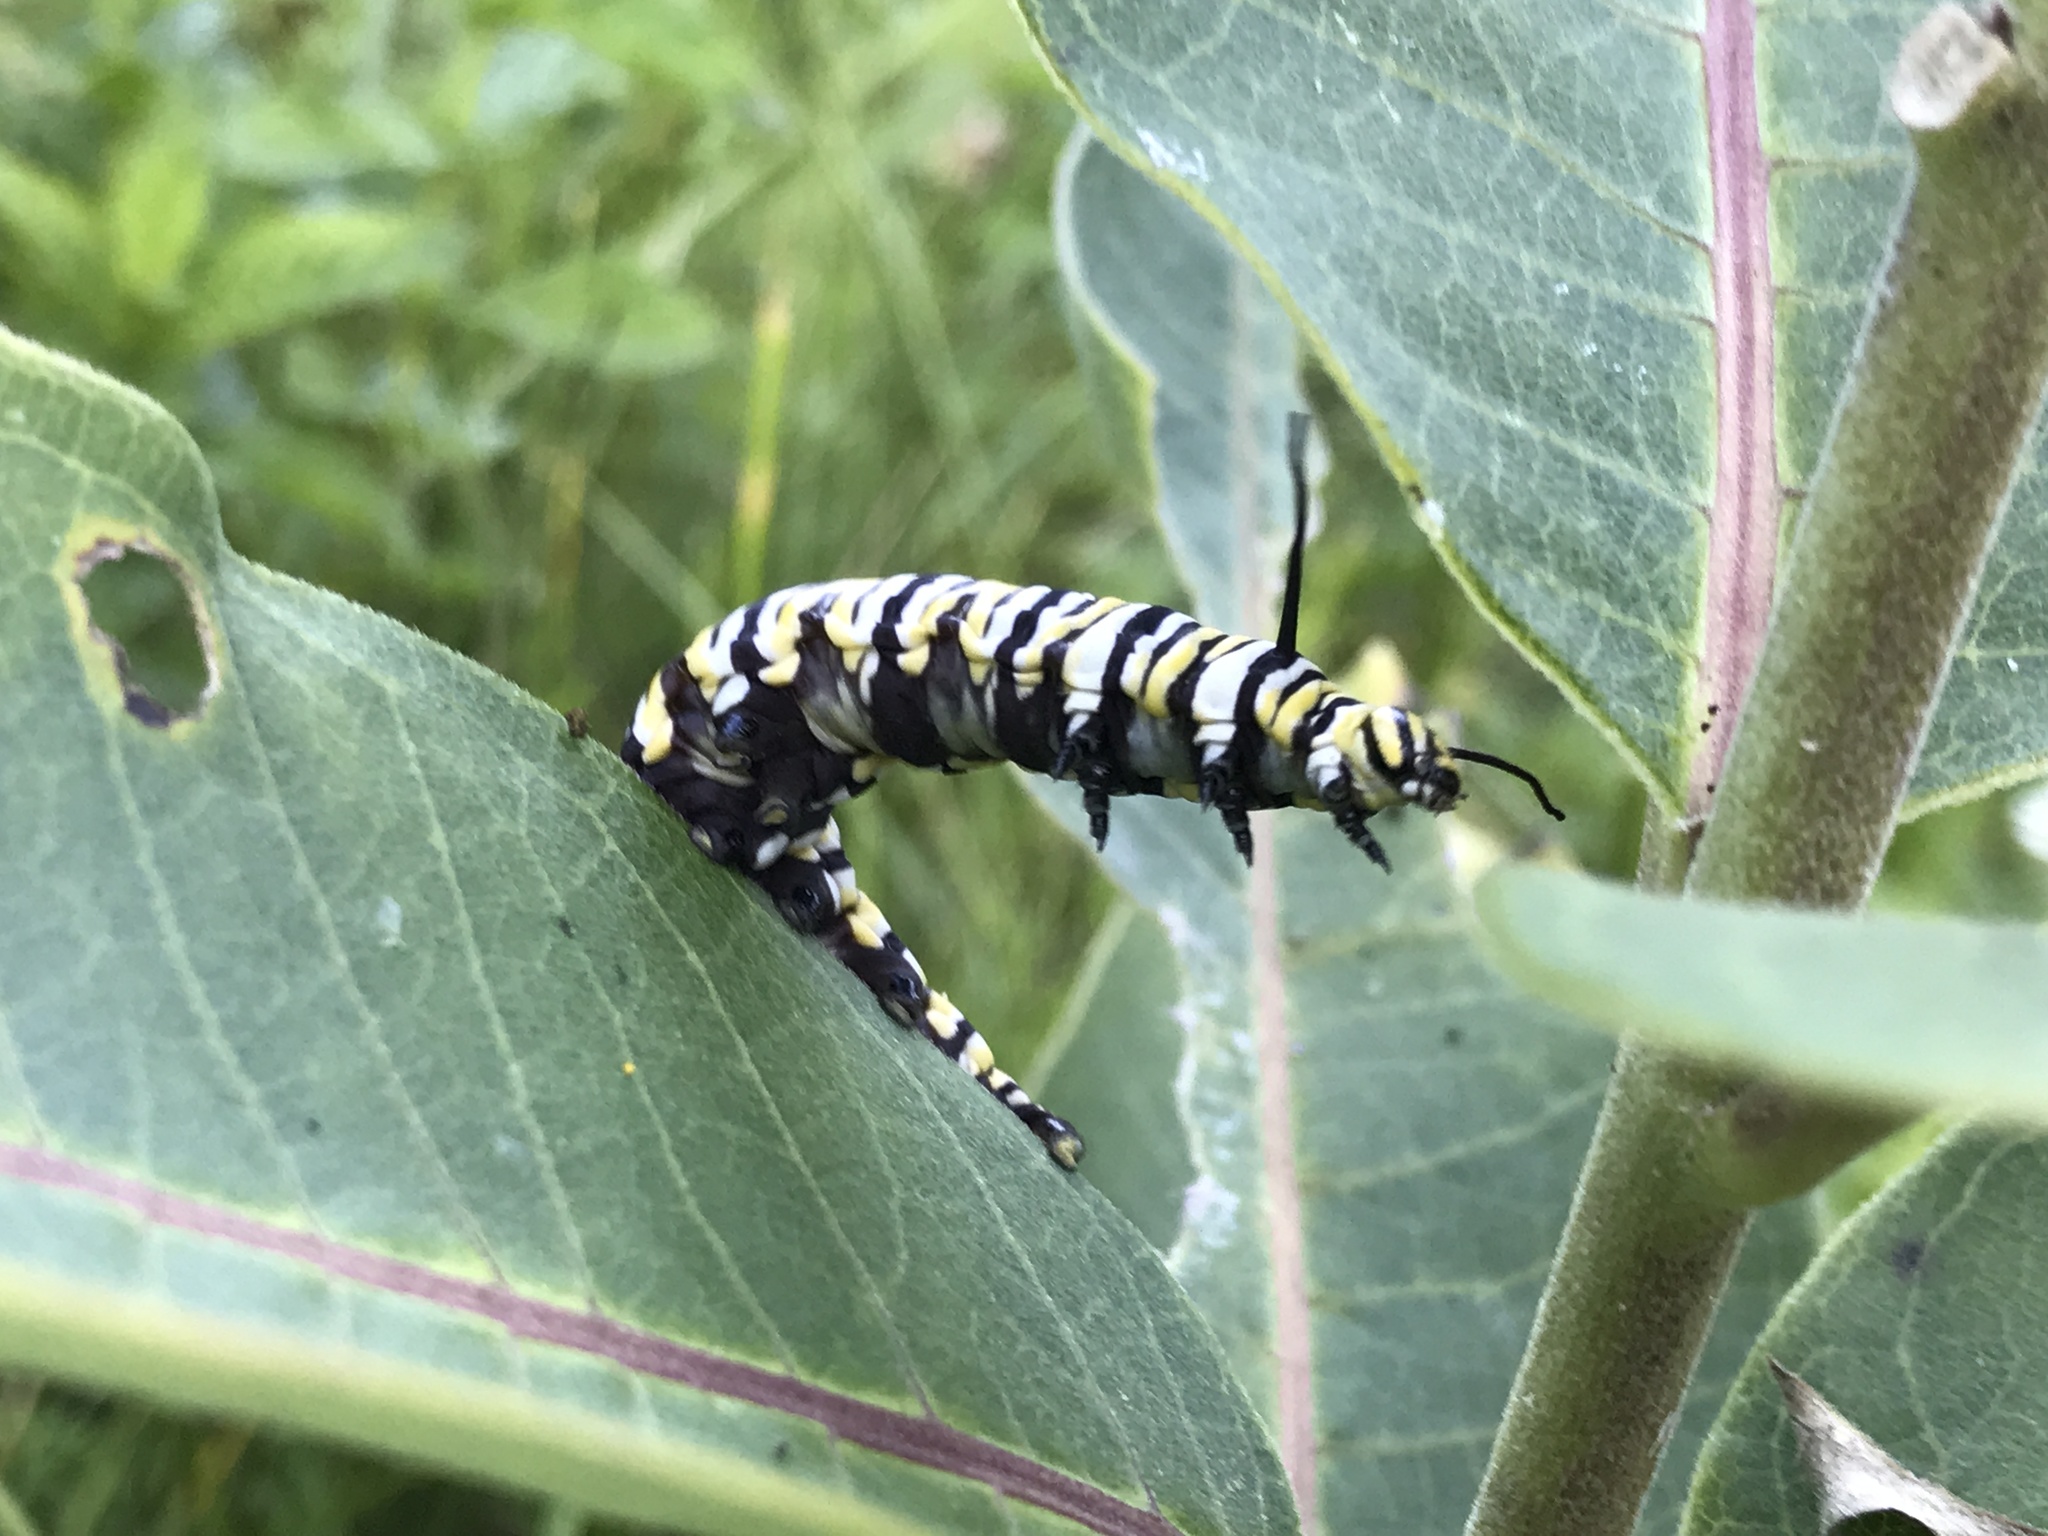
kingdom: Animalia
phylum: Arthropoda
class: Insecta
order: Lepidoptera
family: Nymphalidae
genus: Danaus
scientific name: Danaus plexippus
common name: Monarch
